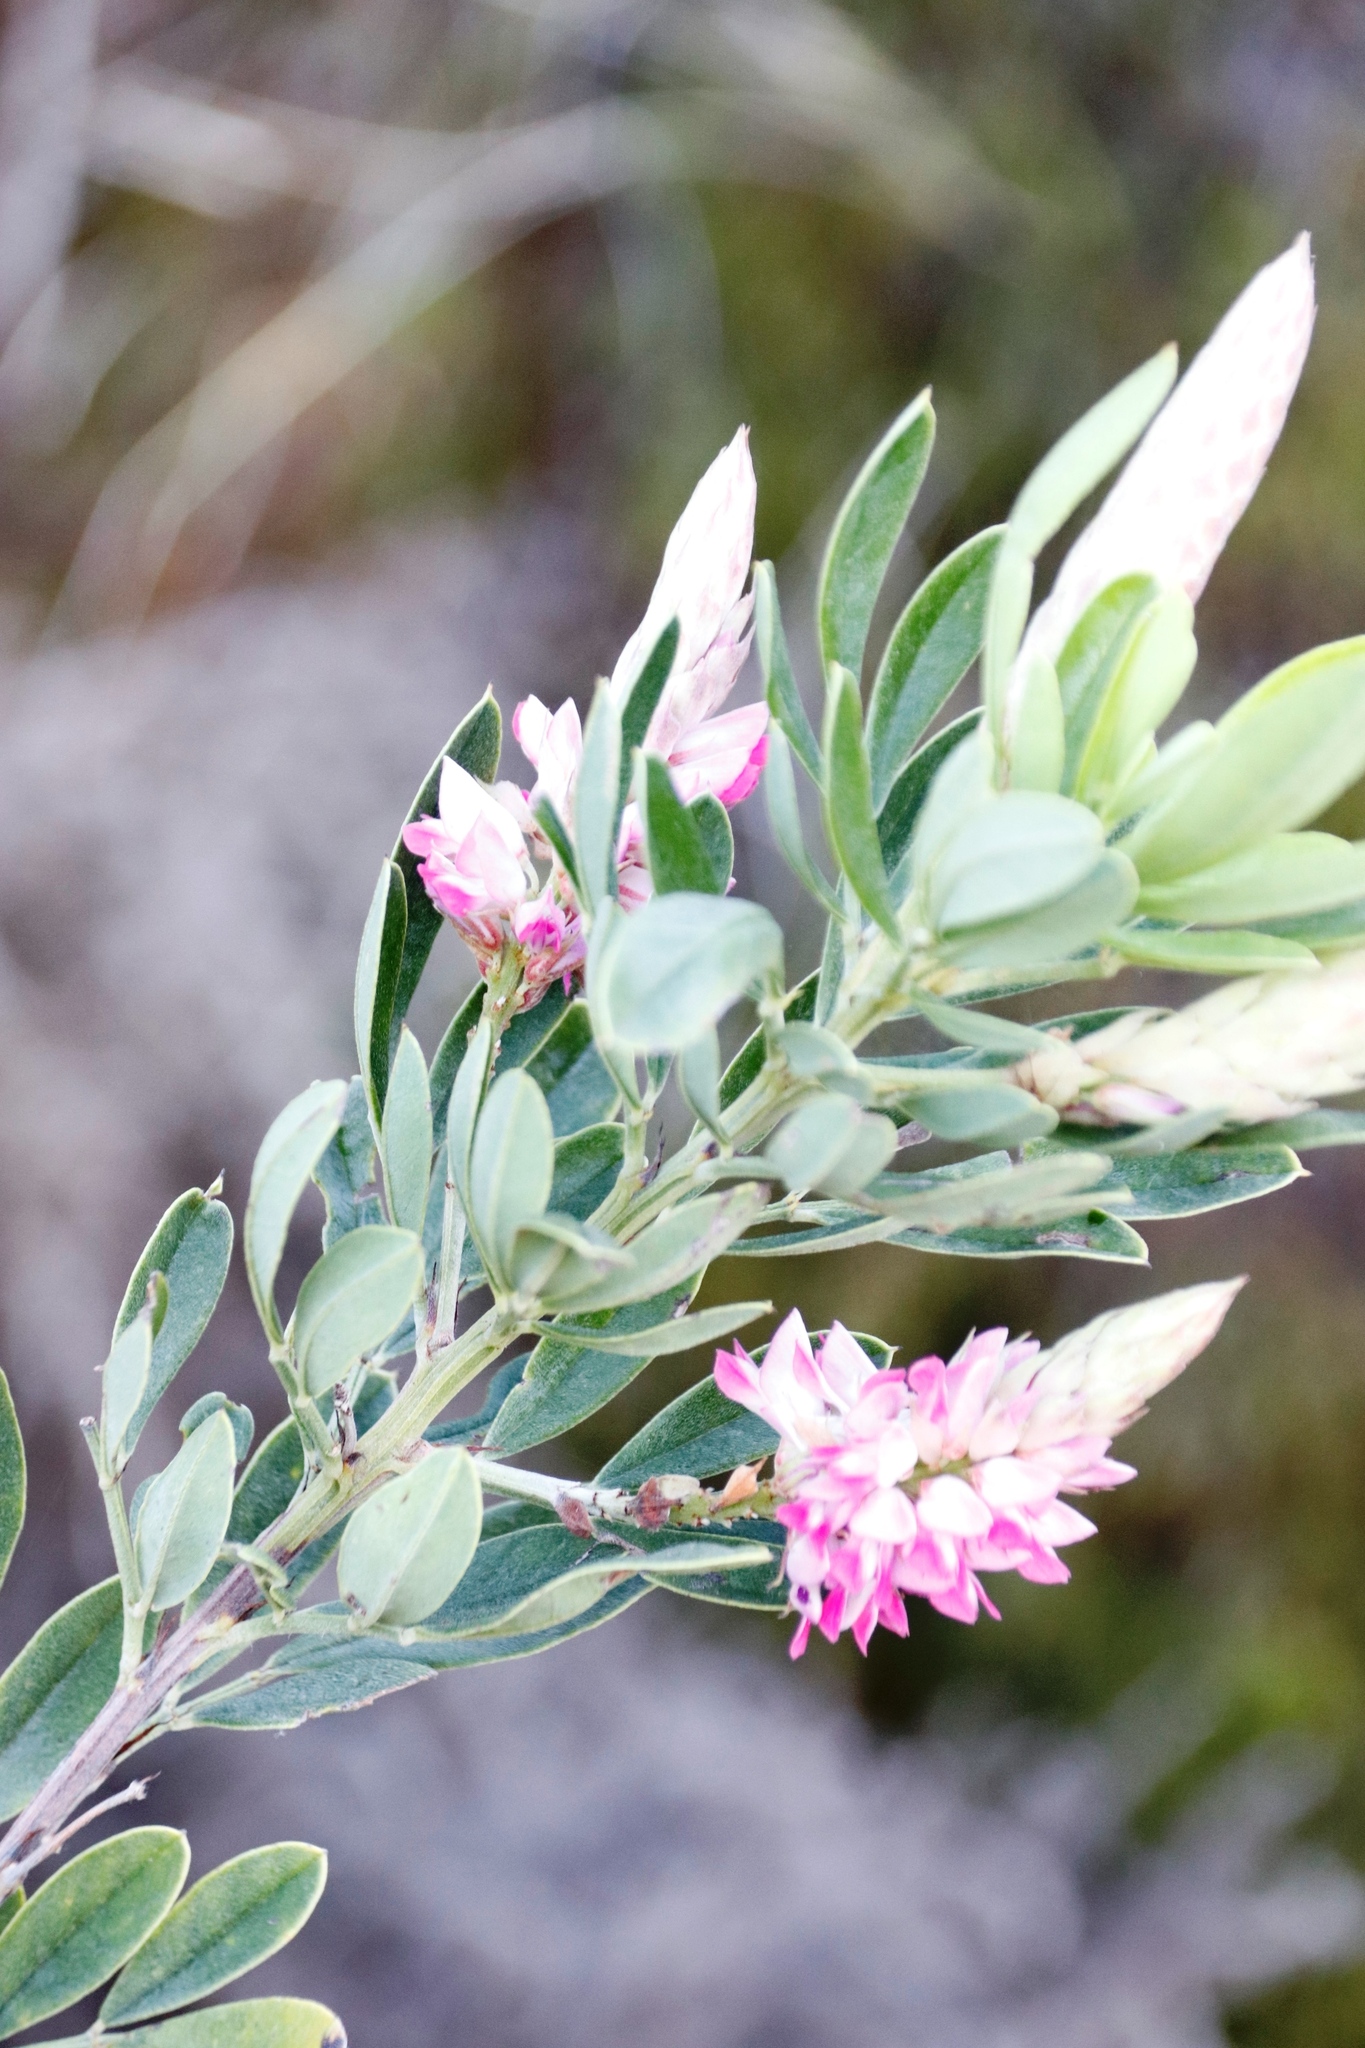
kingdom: Plantae
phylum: Tracheophyta
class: Magnoliopsida
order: Fabales
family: Fabaceae
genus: Indigofera
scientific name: Indigofera cytisoides
